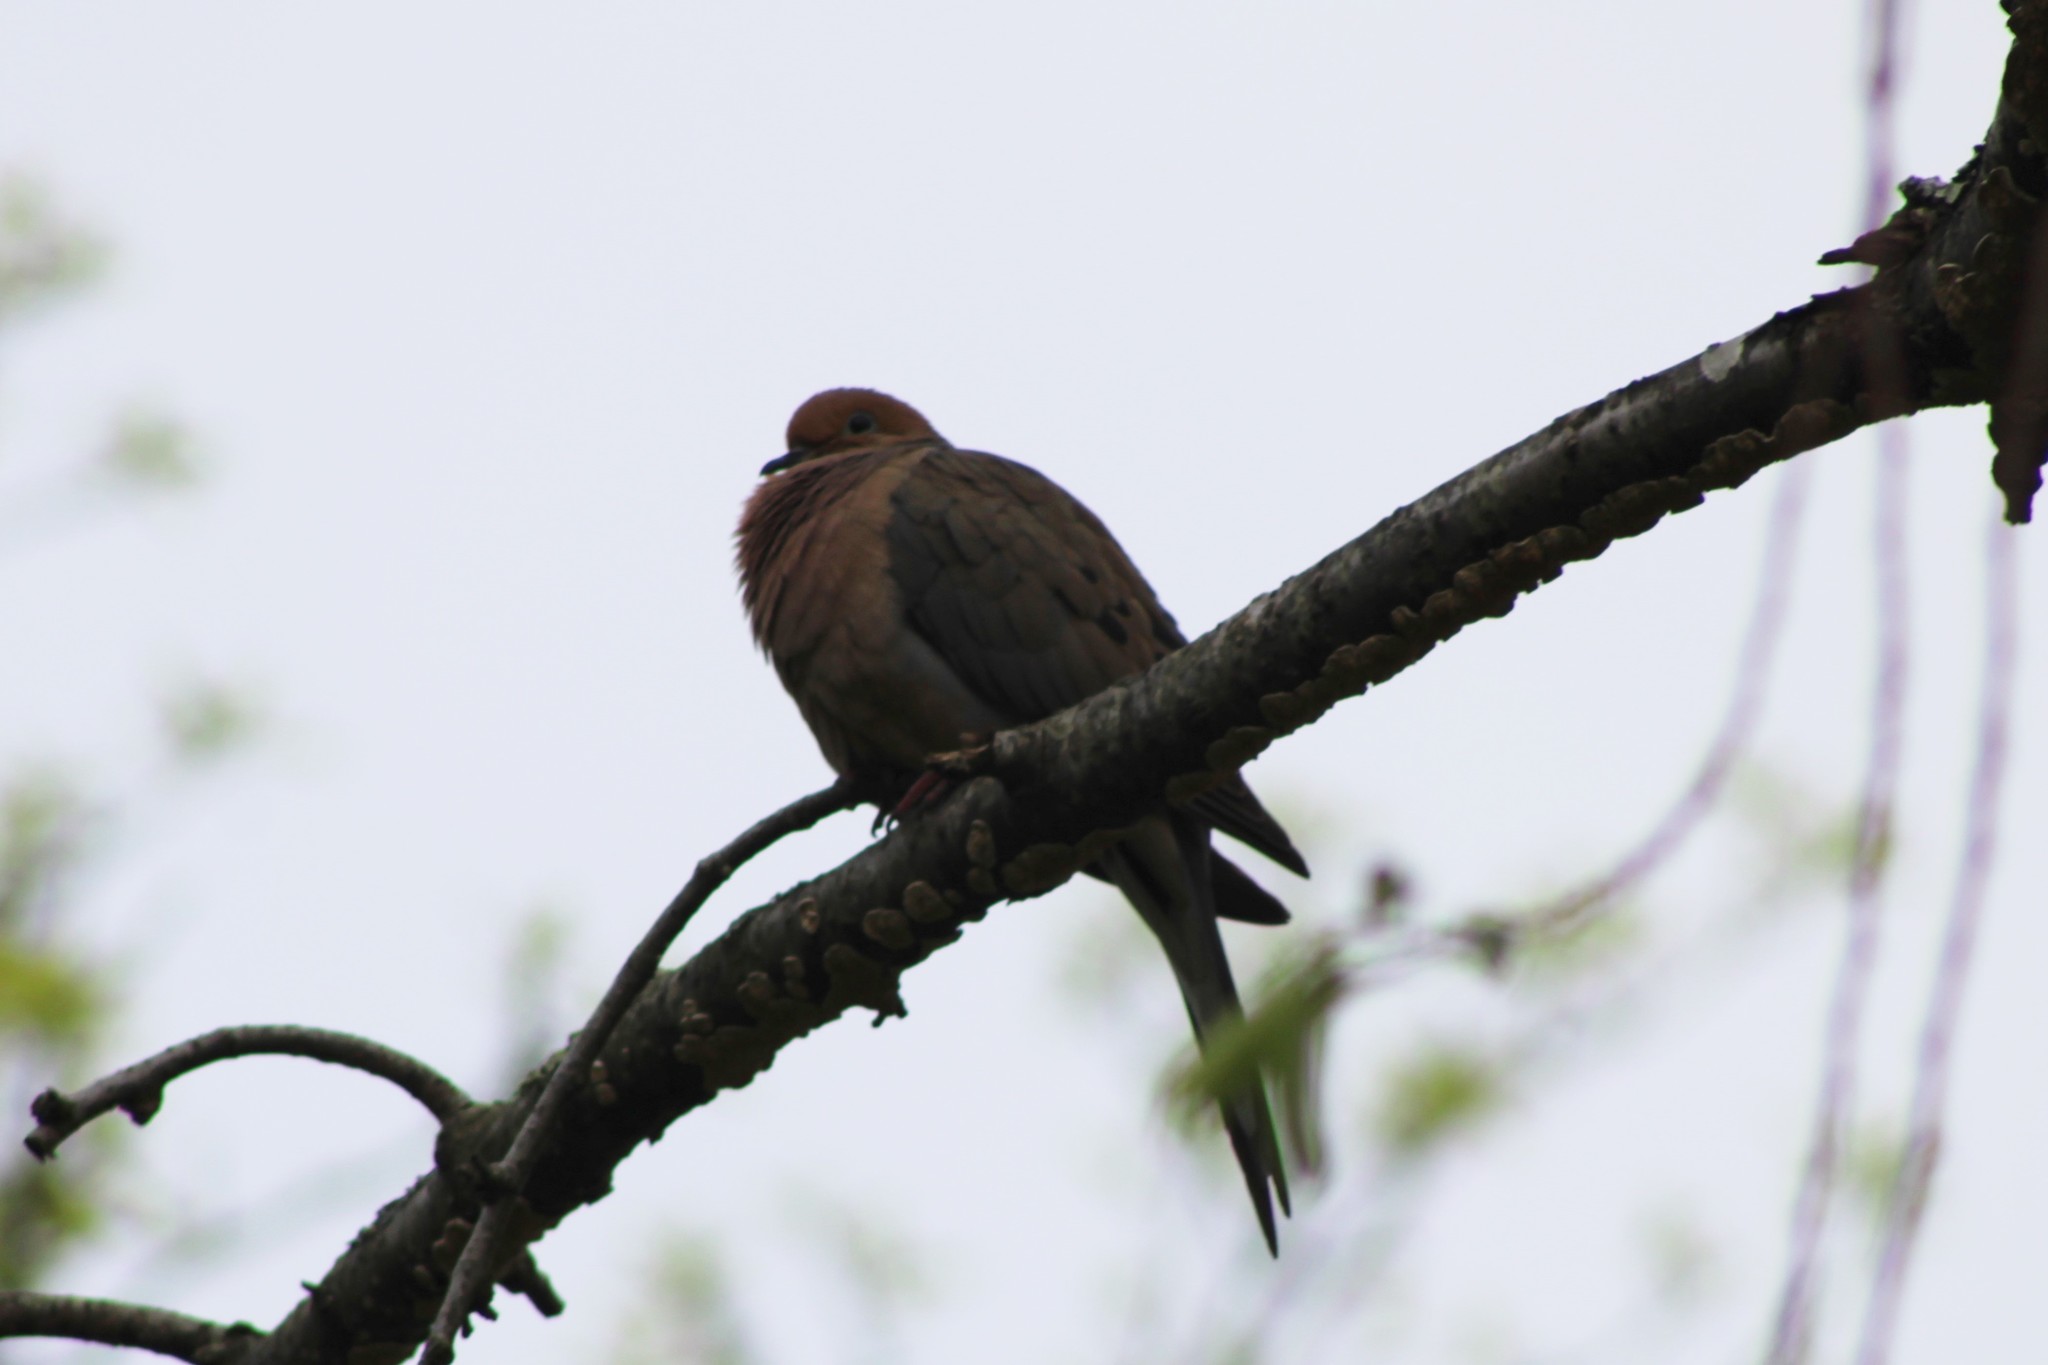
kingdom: Animalia
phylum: Chordata
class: Aves
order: Columbiformes
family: Columbidae
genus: Zenaida
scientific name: Zenaida macroura
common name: Mourning dove
